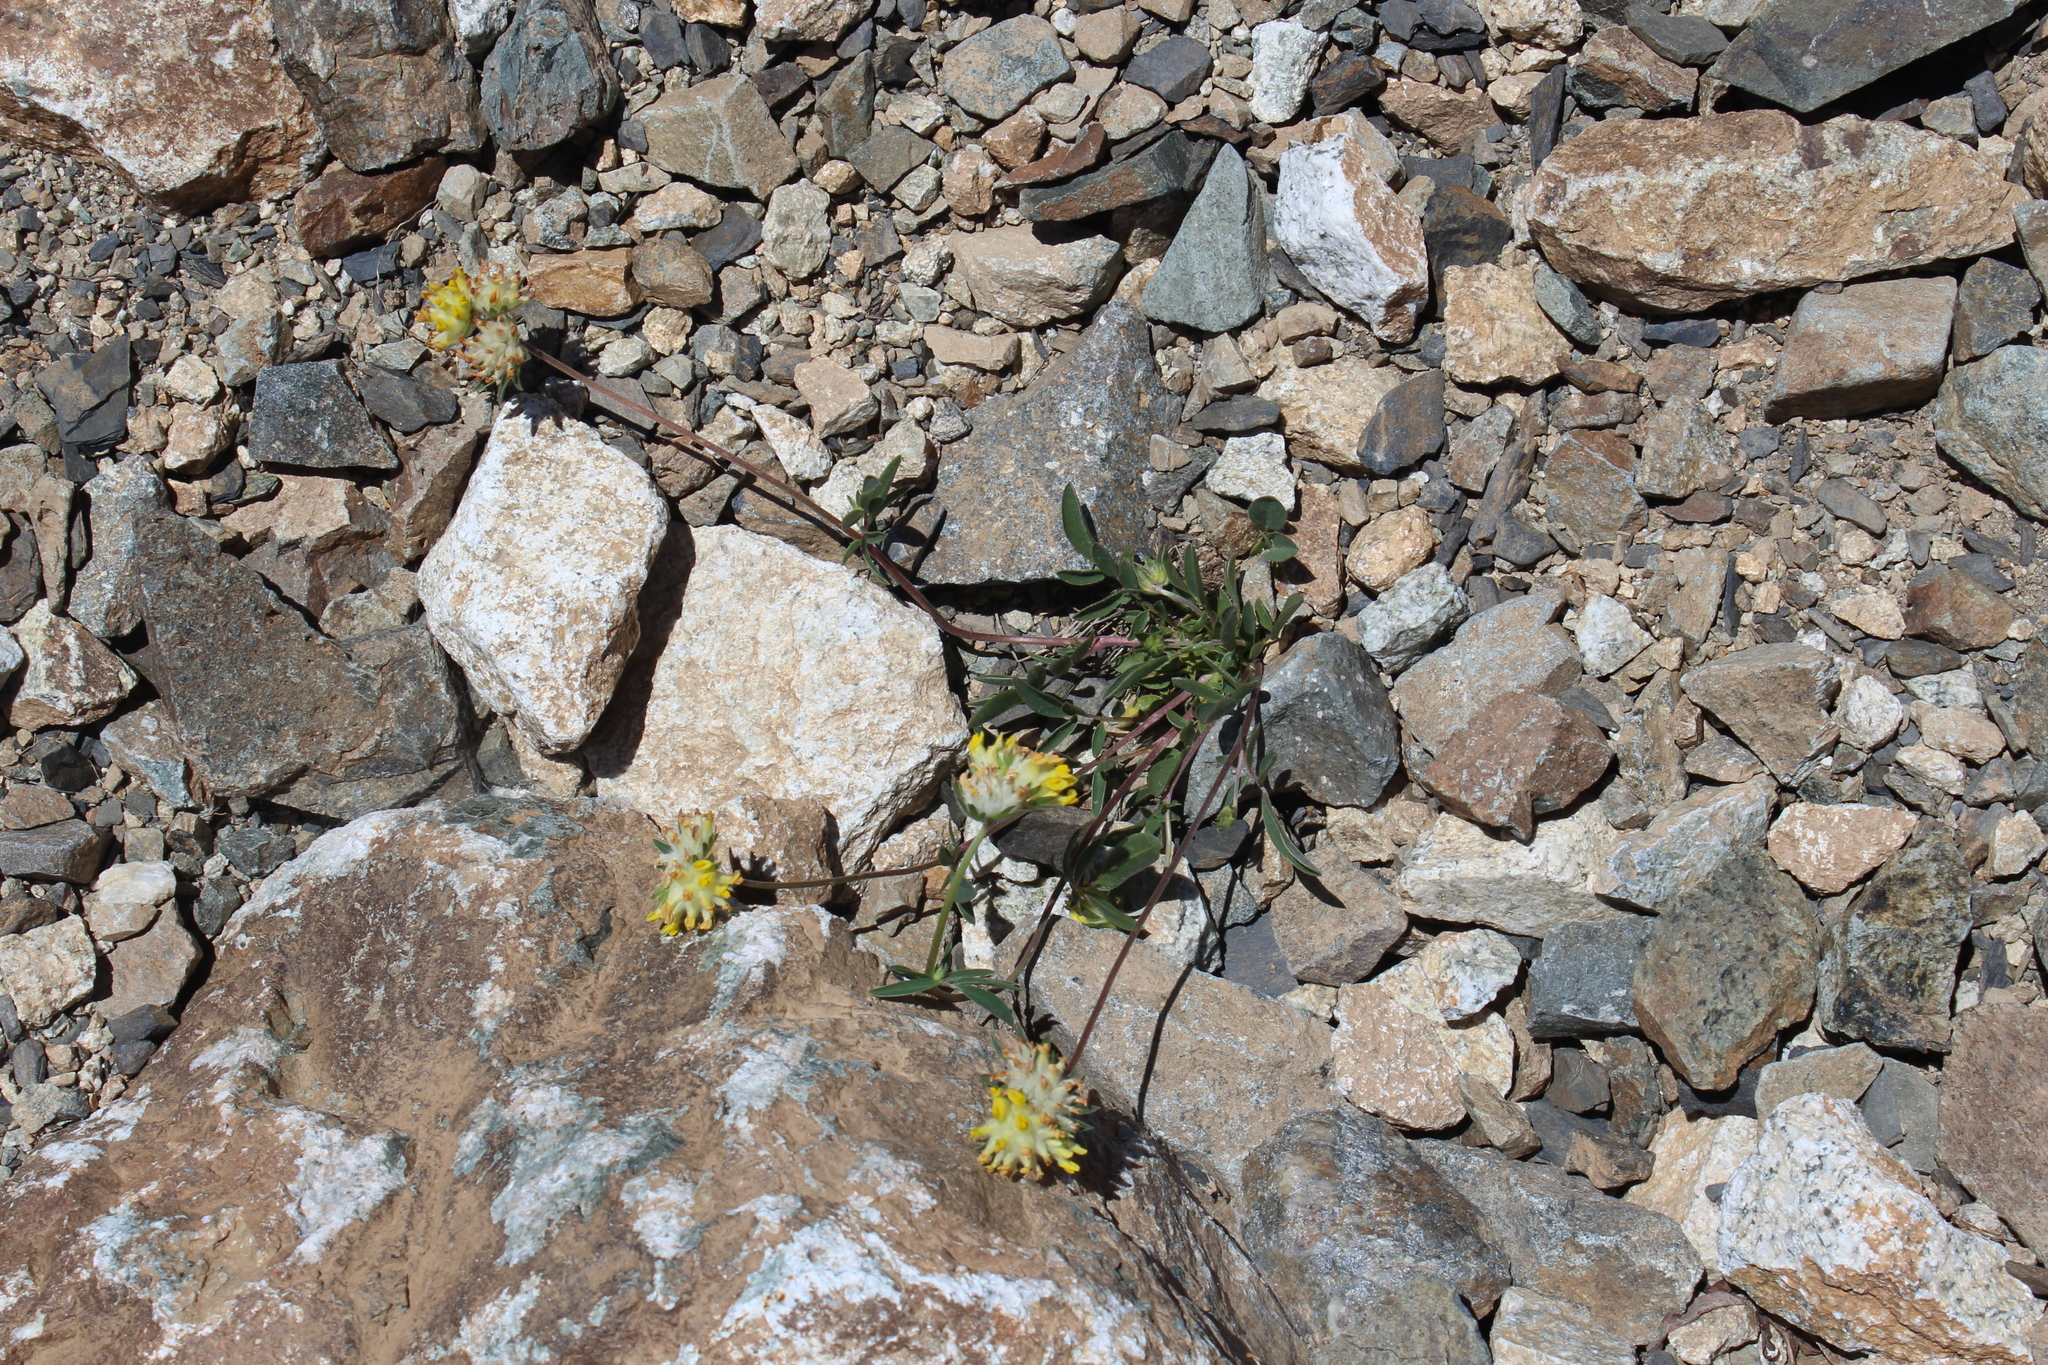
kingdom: Plantae
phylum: Tracheophyta
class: Magnoliopsida
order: Fabales
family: Fabaceae
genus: Anthyllis
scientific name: Anthyllis vulneraria
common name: Kidney vetch
